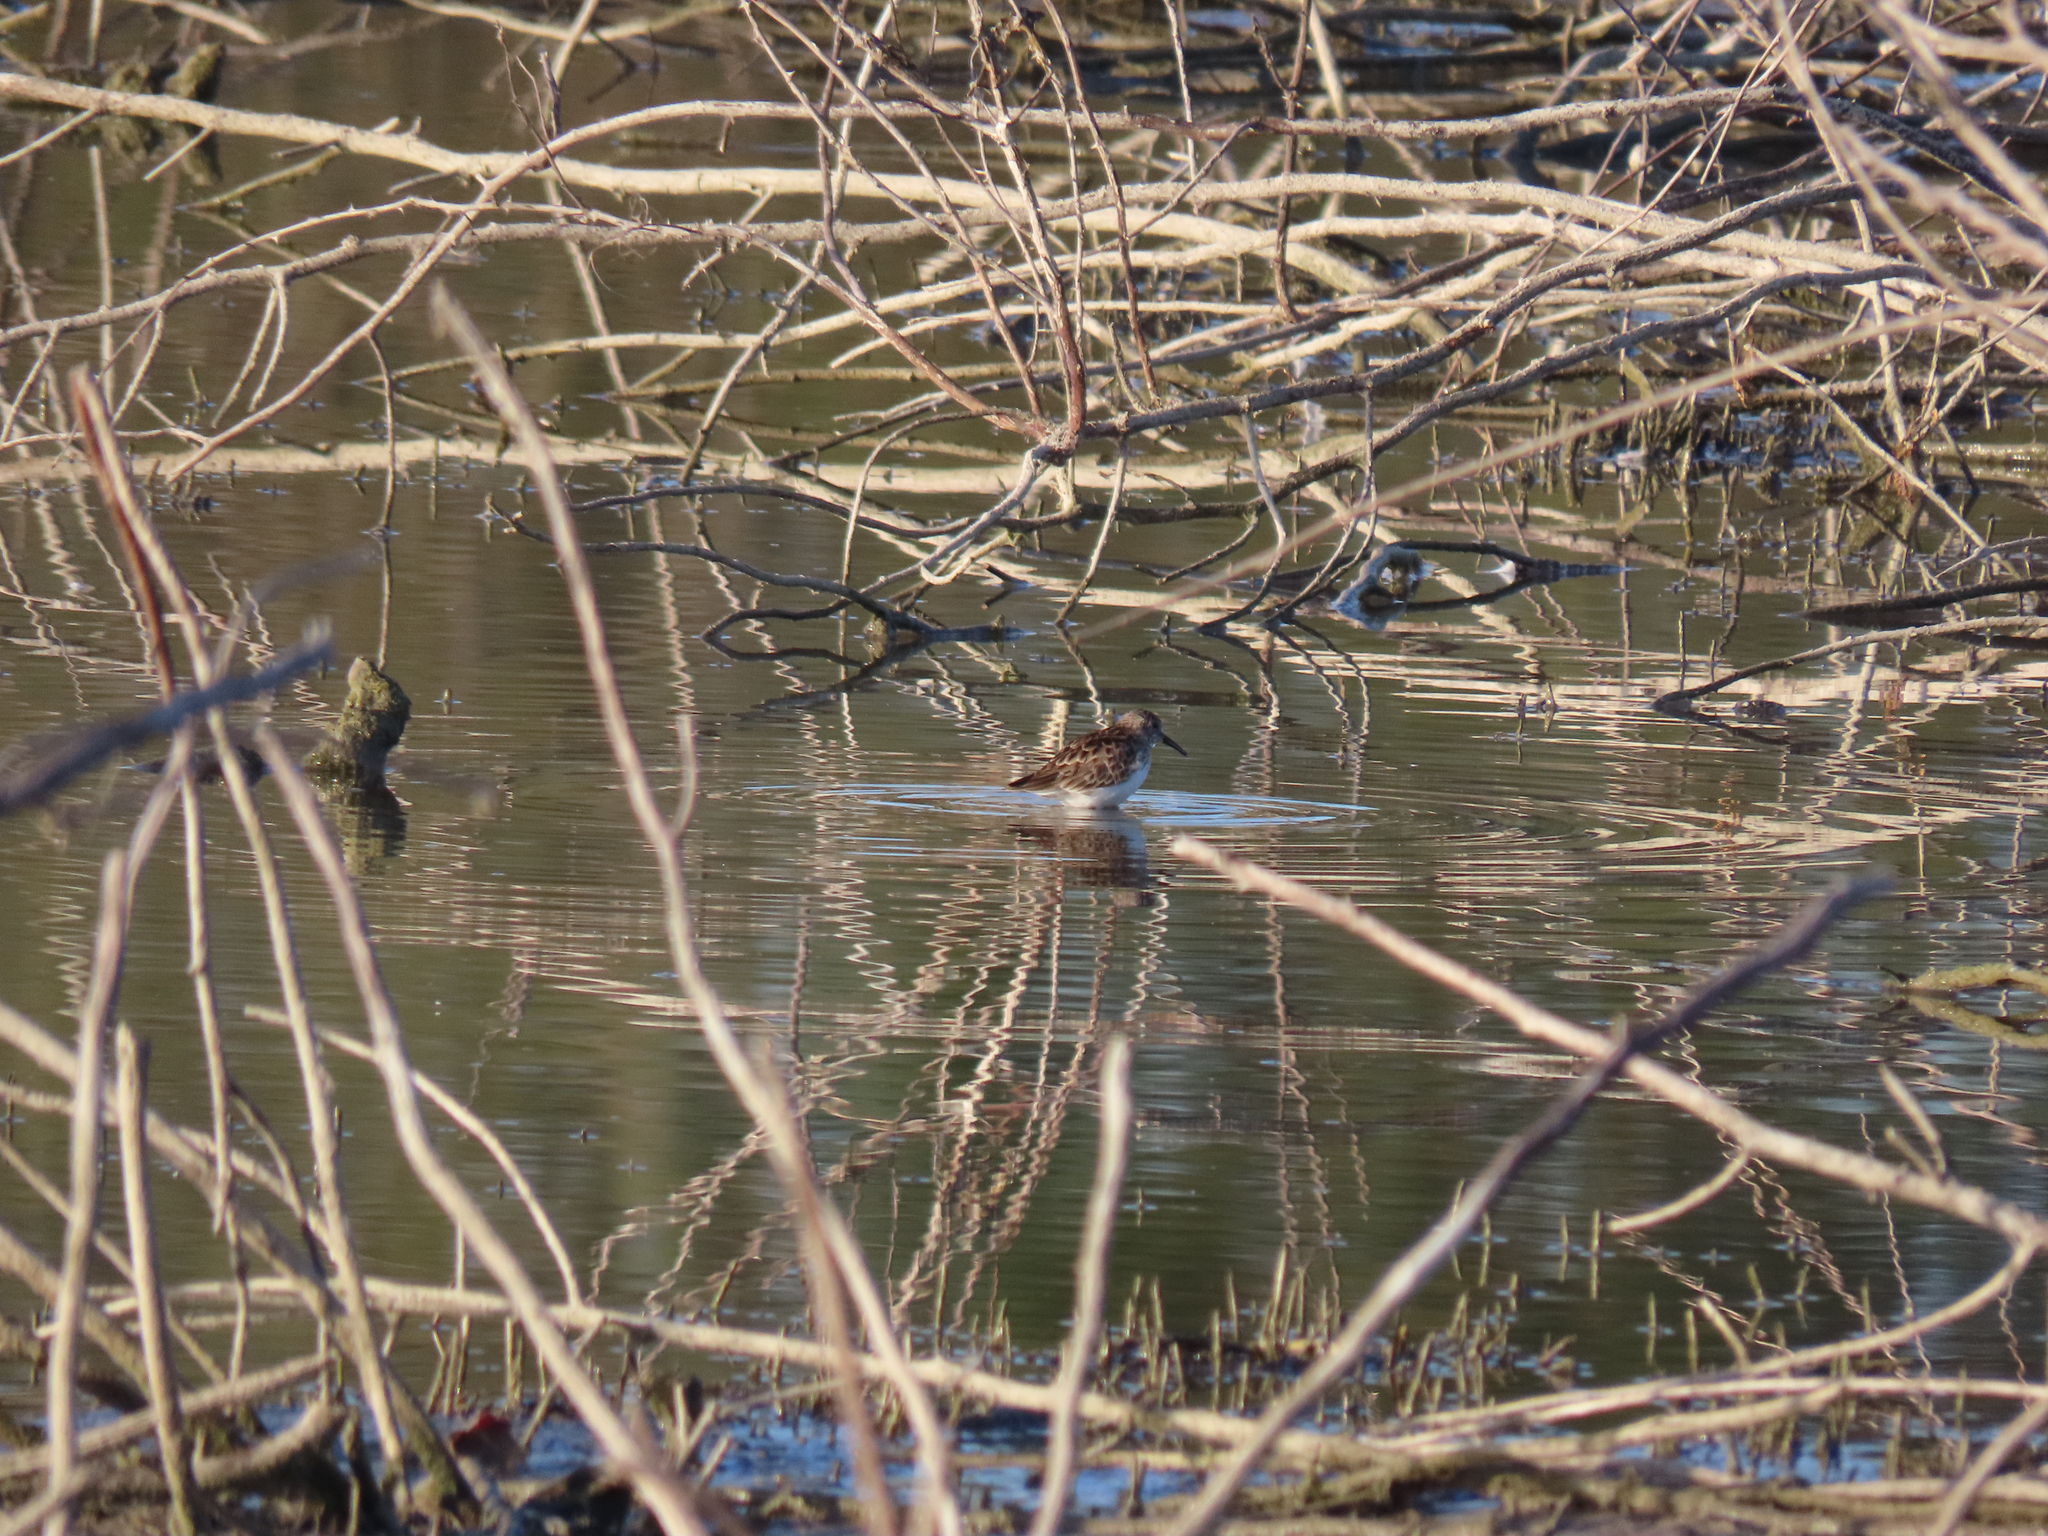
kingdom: Animalia
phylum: Chordata
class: Aves
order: Charadriiformes
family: Scolopacidae
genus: Calidris
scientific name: Calidris minutilla
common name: Least sandpiper
